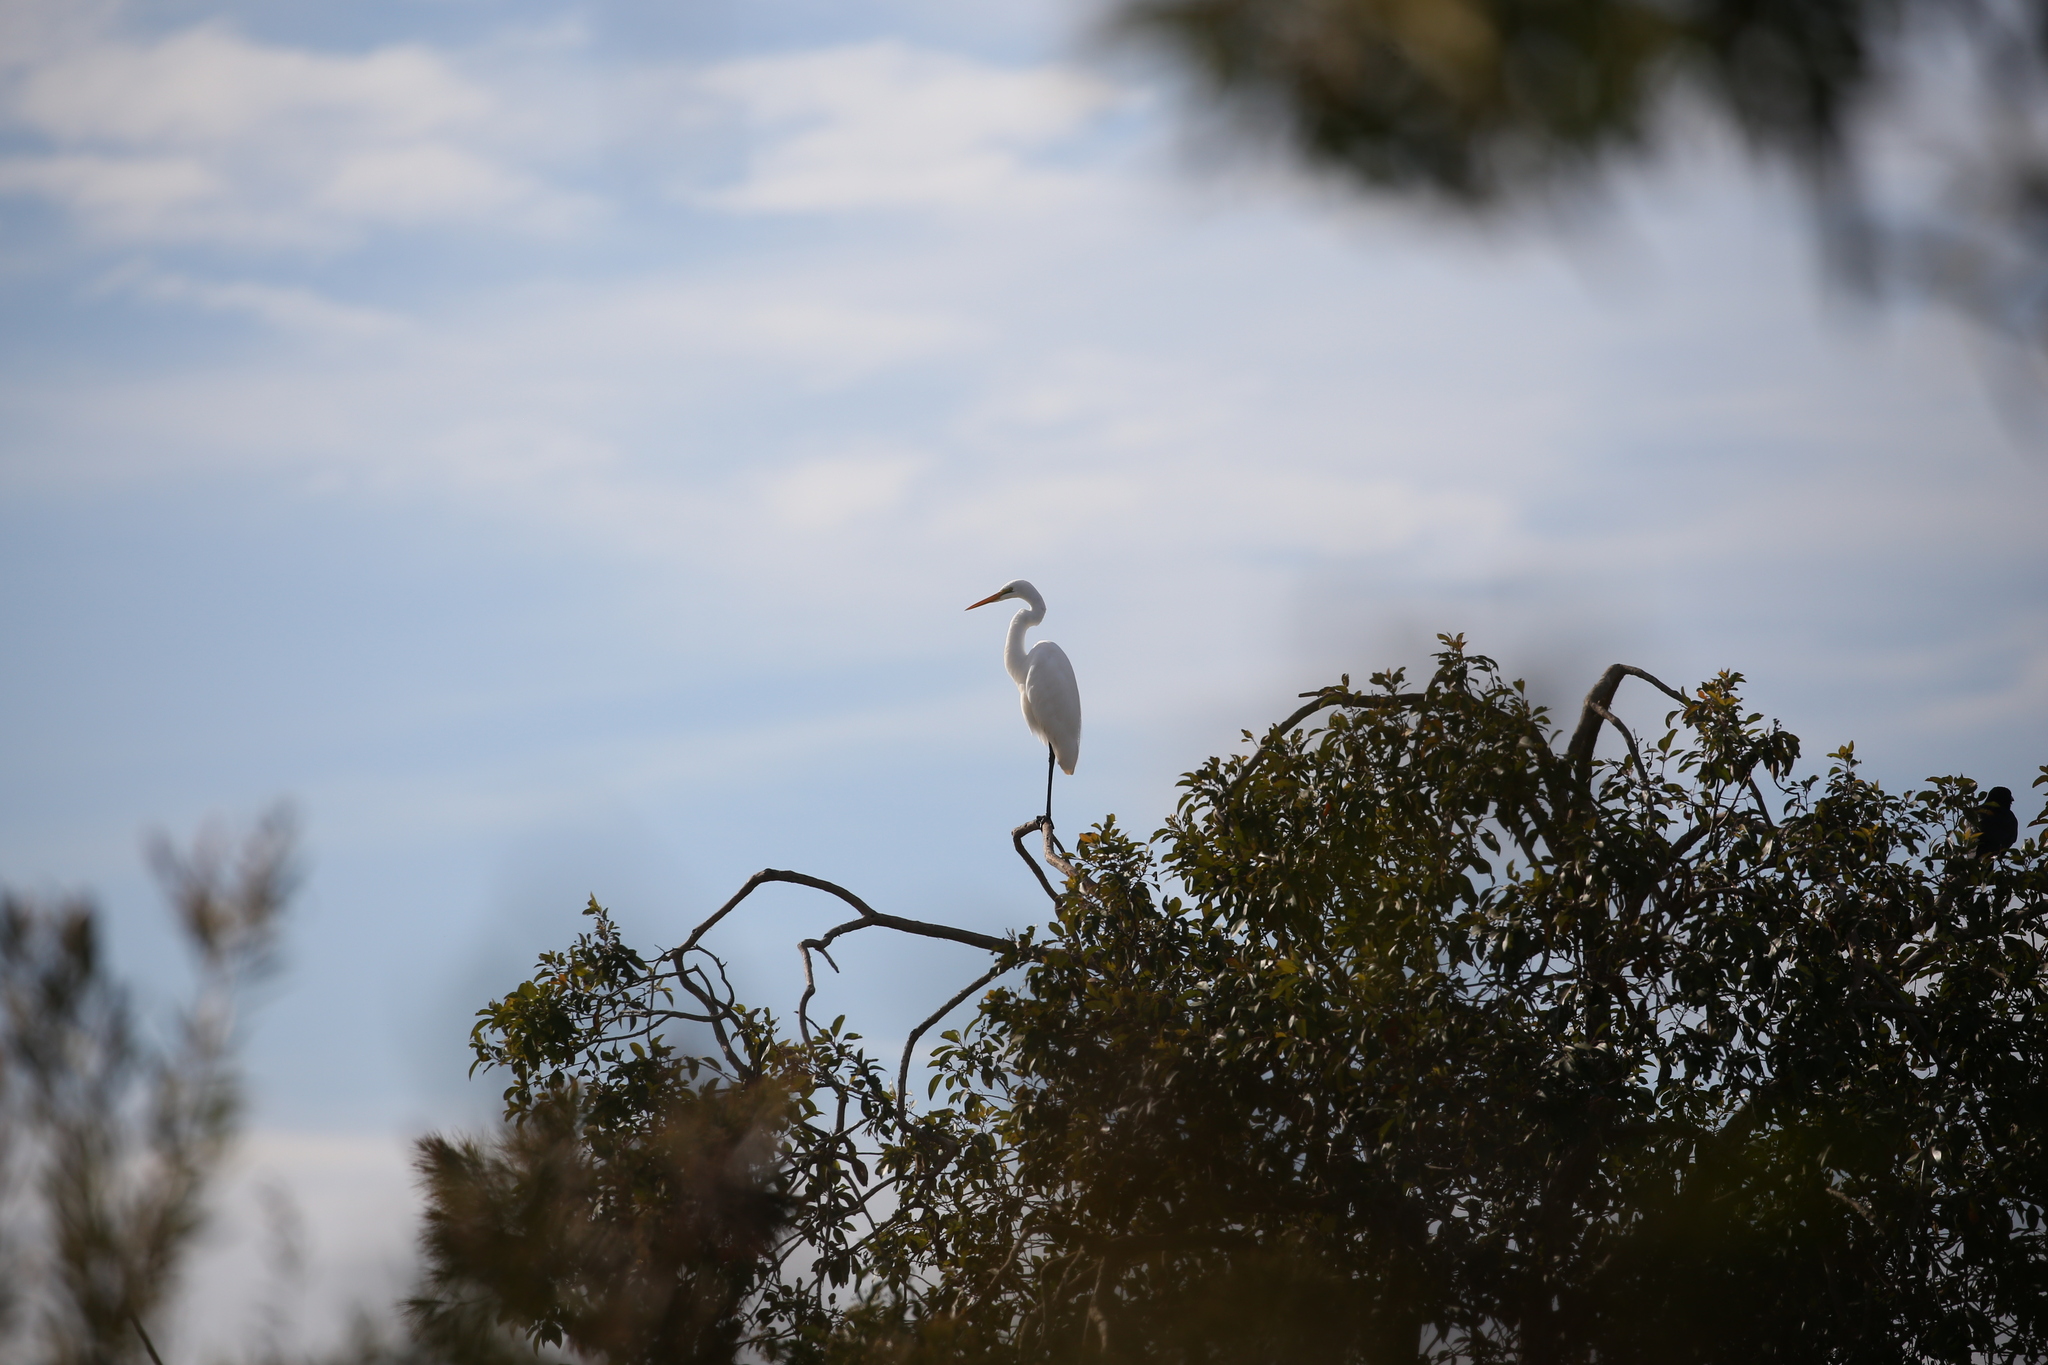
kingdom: Animalia
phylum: Chordata
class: Aves
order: Pelecaniformes
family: Ardeidae
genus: Ardea
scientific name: Ardea alba
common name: Great egret
